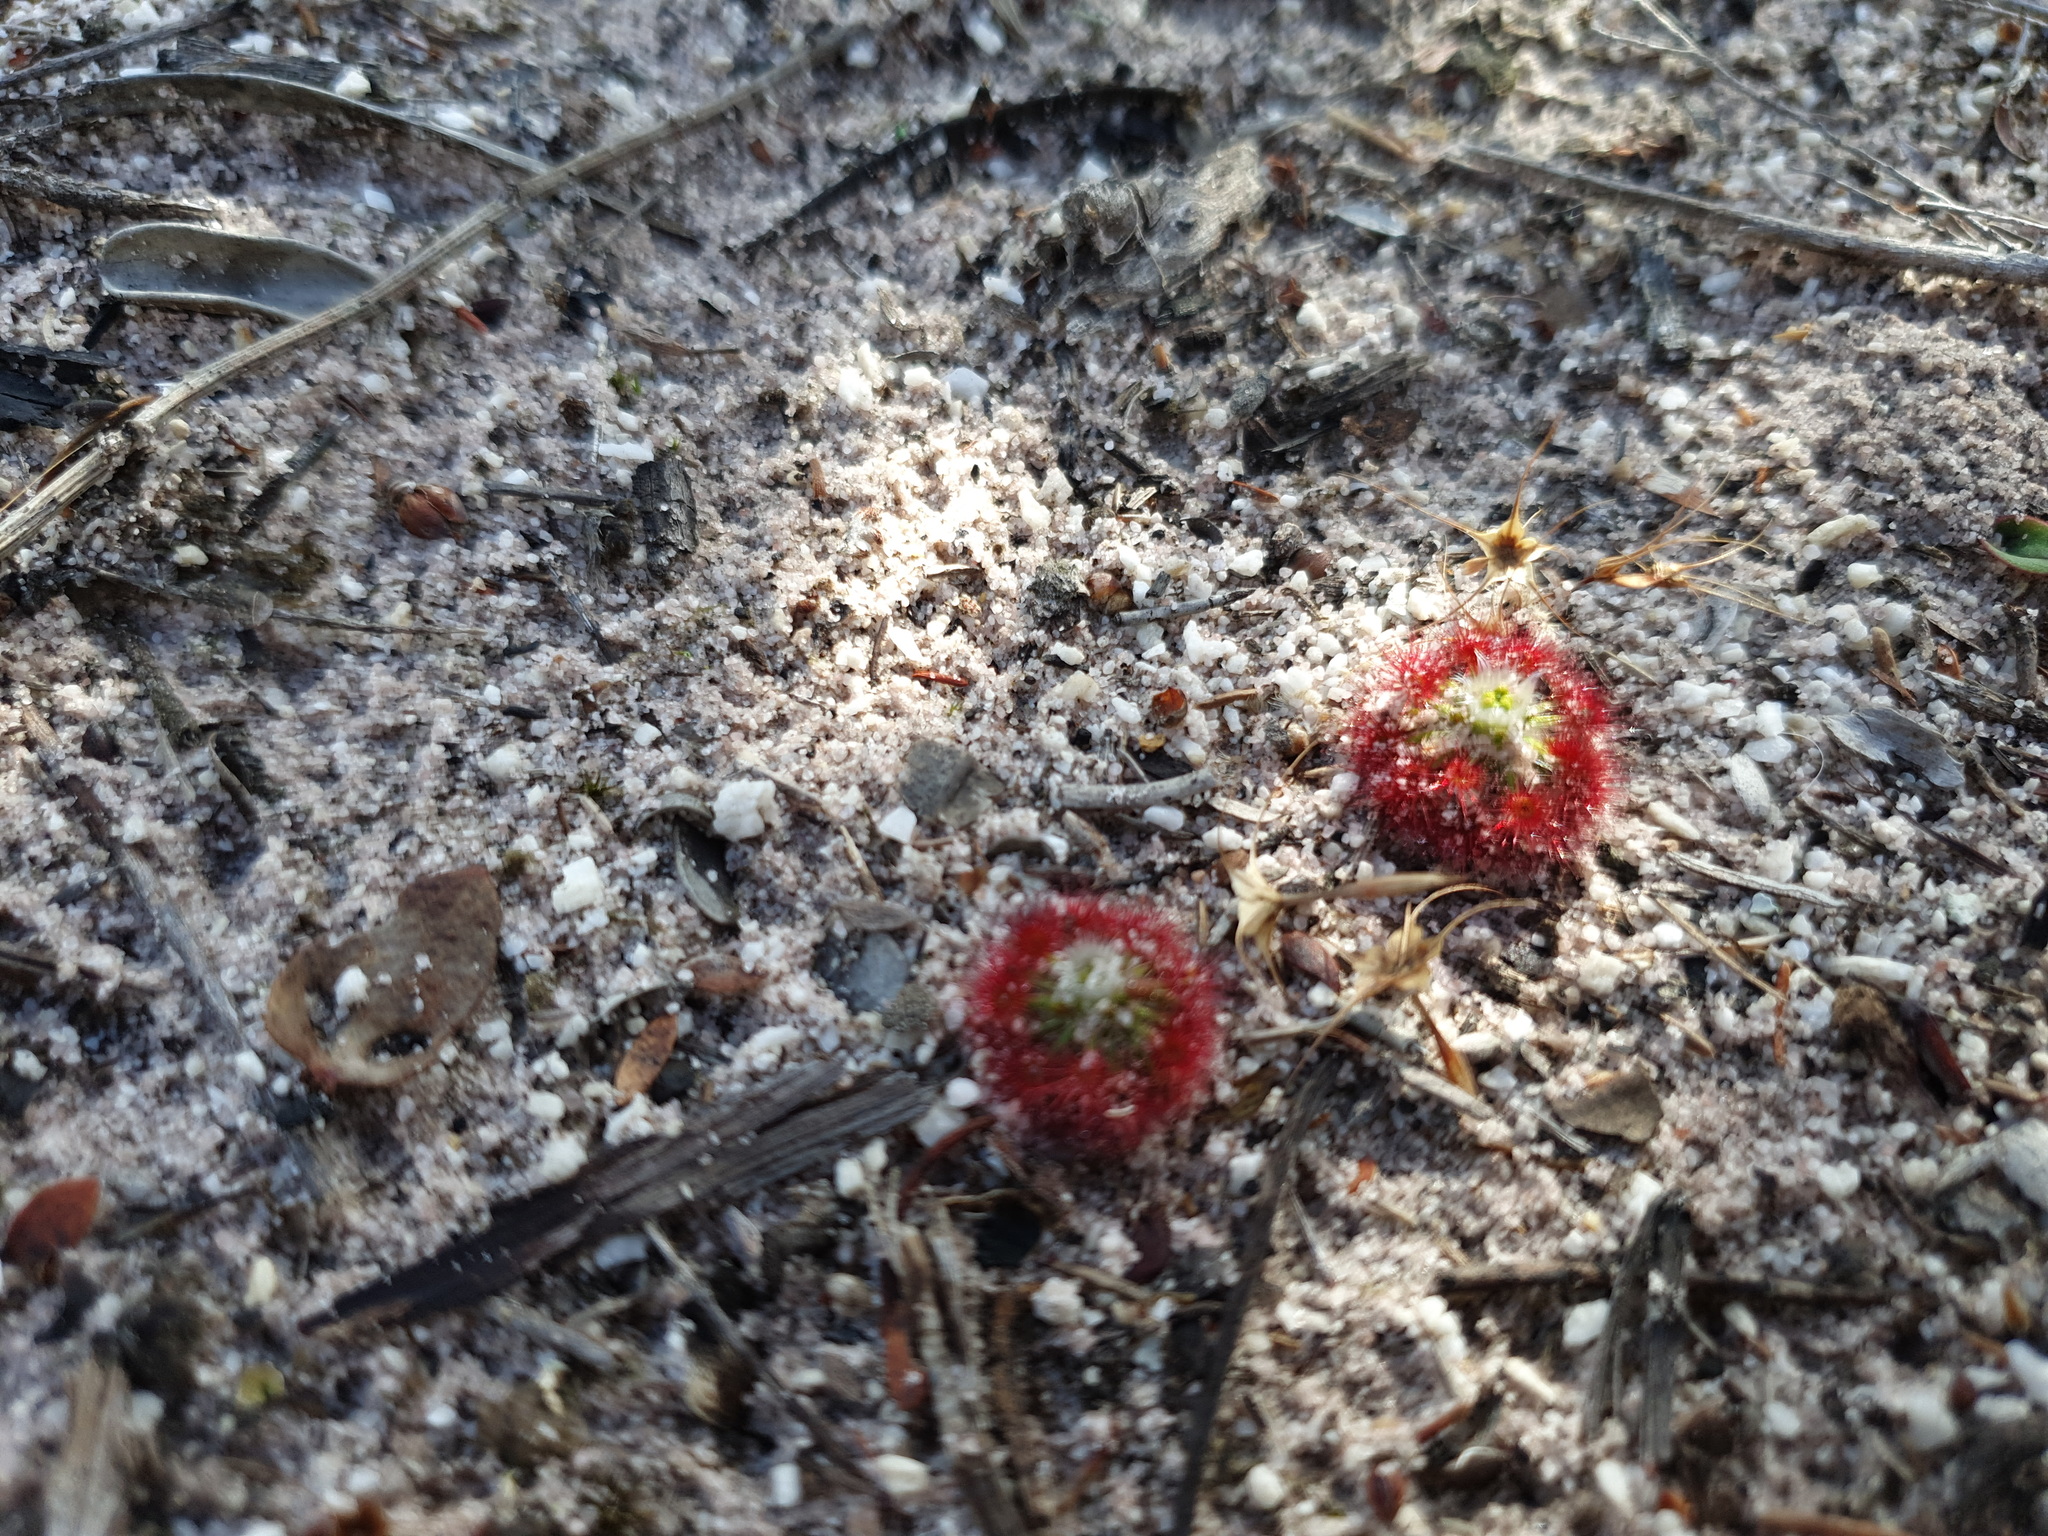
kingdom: Plantae
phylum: Tracheophyta
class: Magnoliopsida
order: Caryophyllales
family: Droseraceae
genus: Drosera
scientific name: Drosera paleacea
